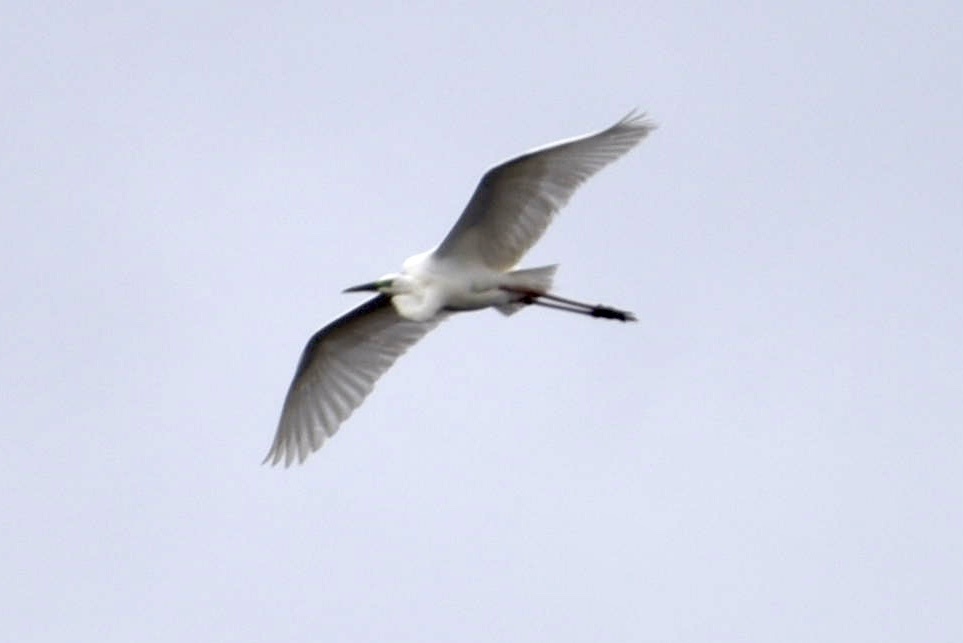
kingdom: Animalia
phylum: Chordata
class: Aves
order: Pelecaniformes
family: Ardeidae
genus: Ardea
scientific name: Ardea alba
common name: Great egret
